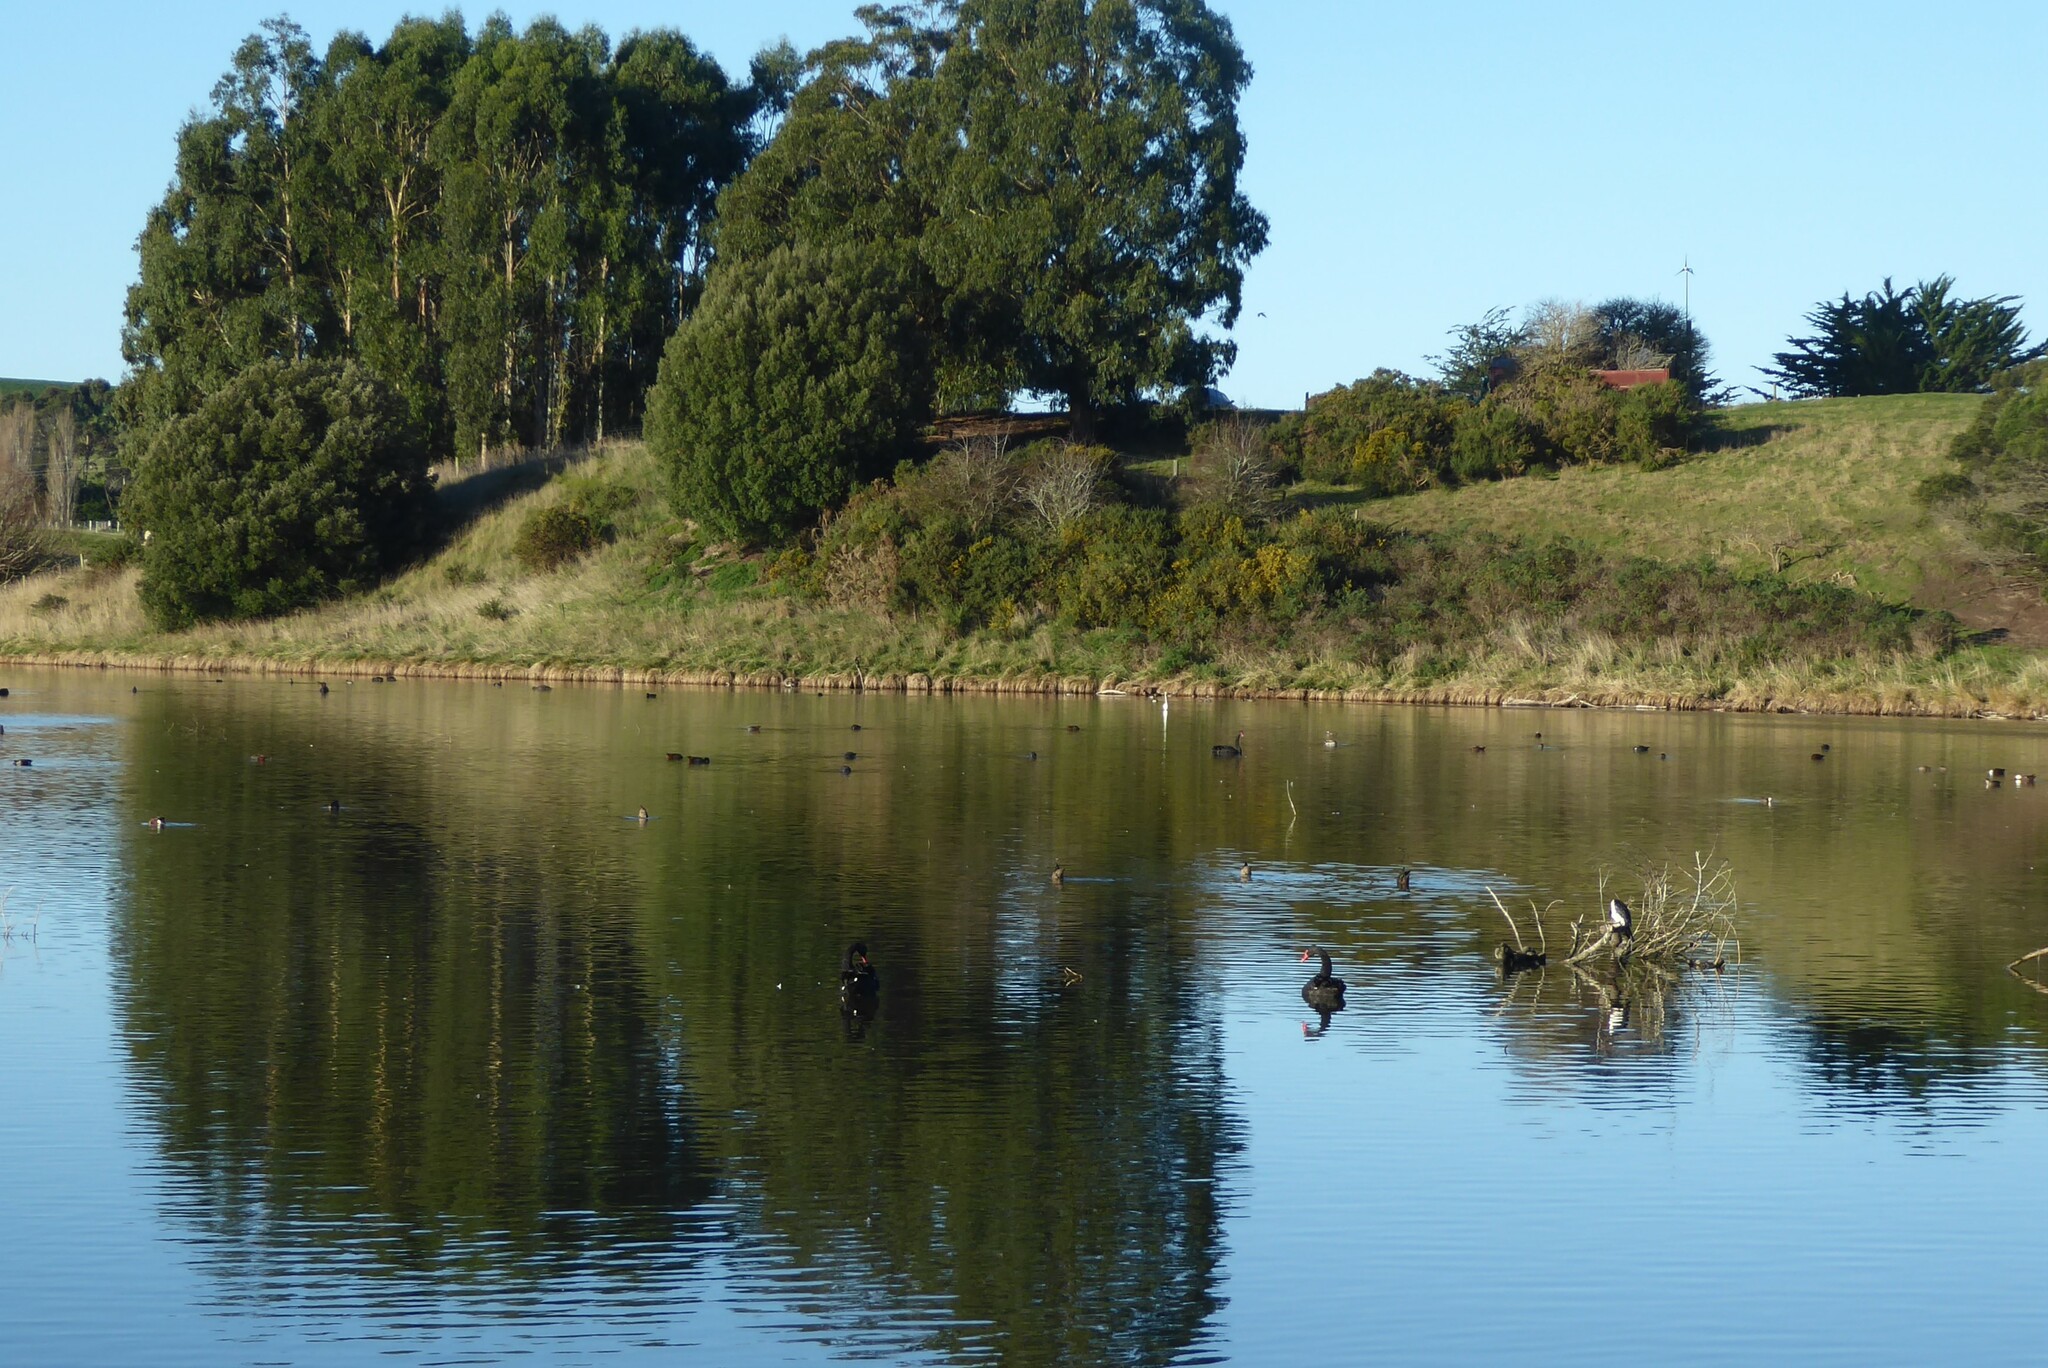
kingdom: Animalia
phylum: Chordata
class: Aves
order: Pelecaniformes
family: Ardeidae
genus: Ardea
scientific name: Ardea modesta
